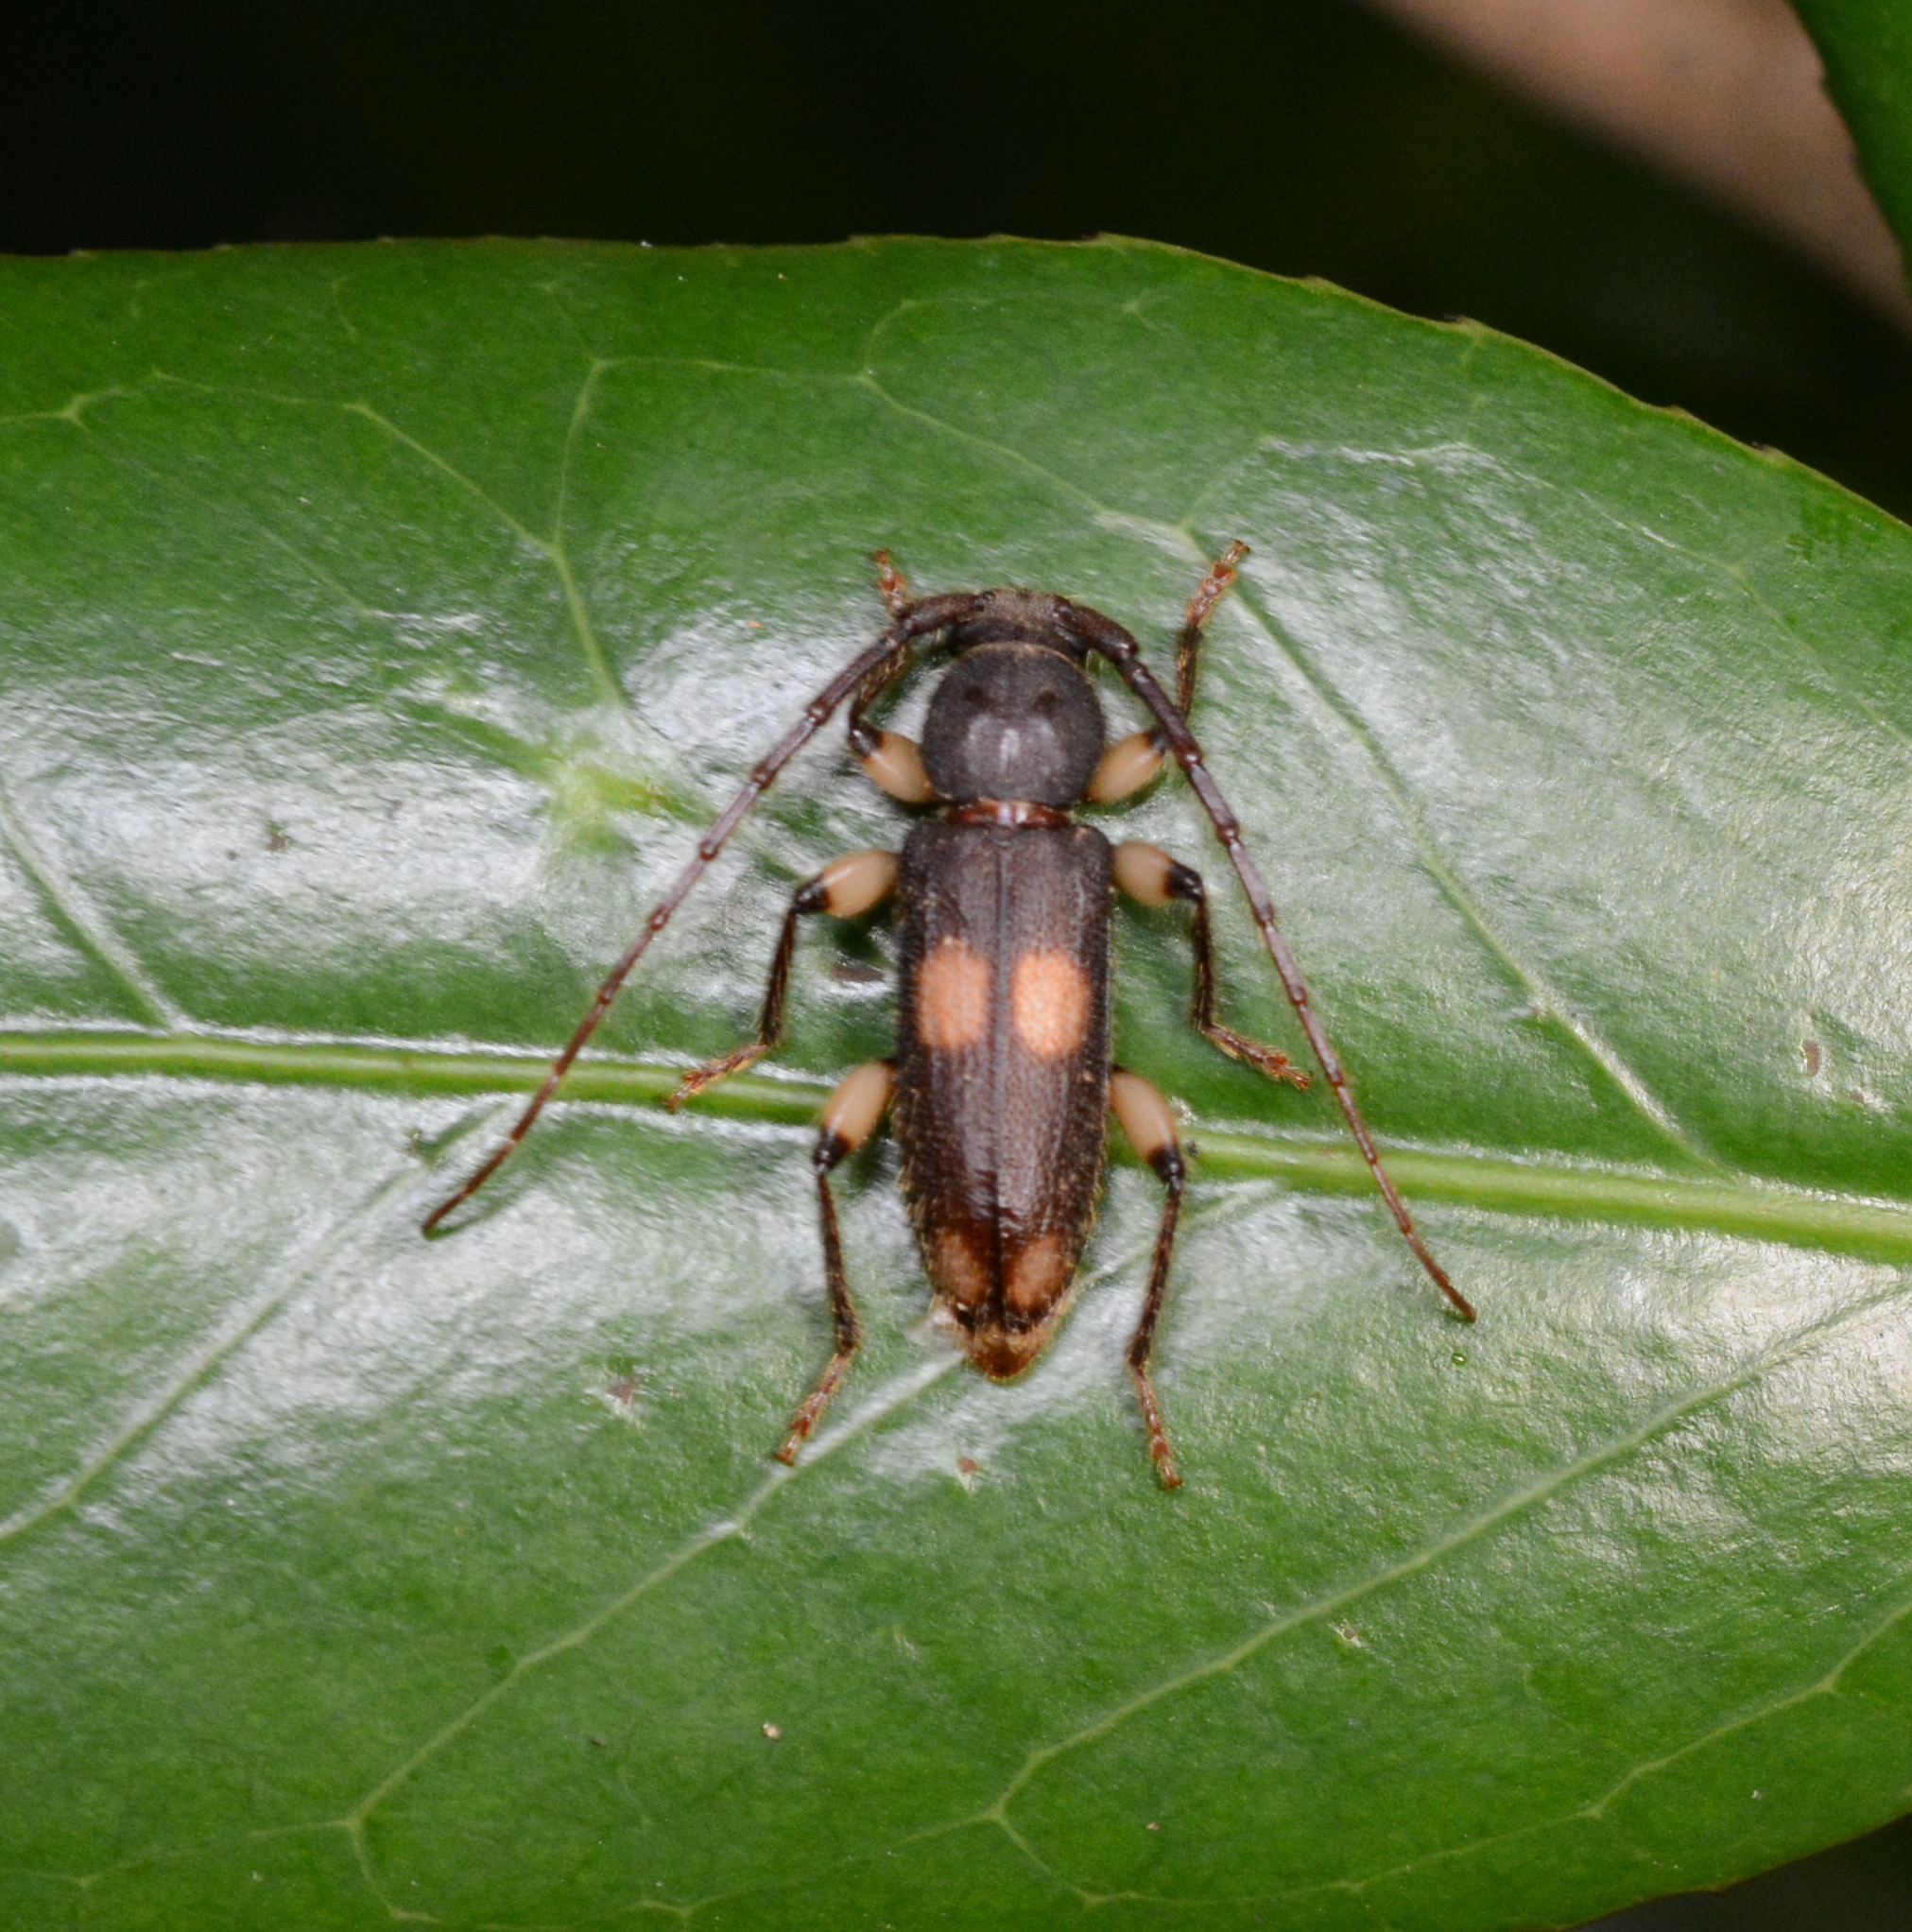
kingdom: Animalia
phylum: Arthropoda
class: Insecta
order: Coleoptera
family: Cerambycidae
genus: Tylonotus
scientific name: Tylonotus bimaculatus
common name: Ash and privet borer
